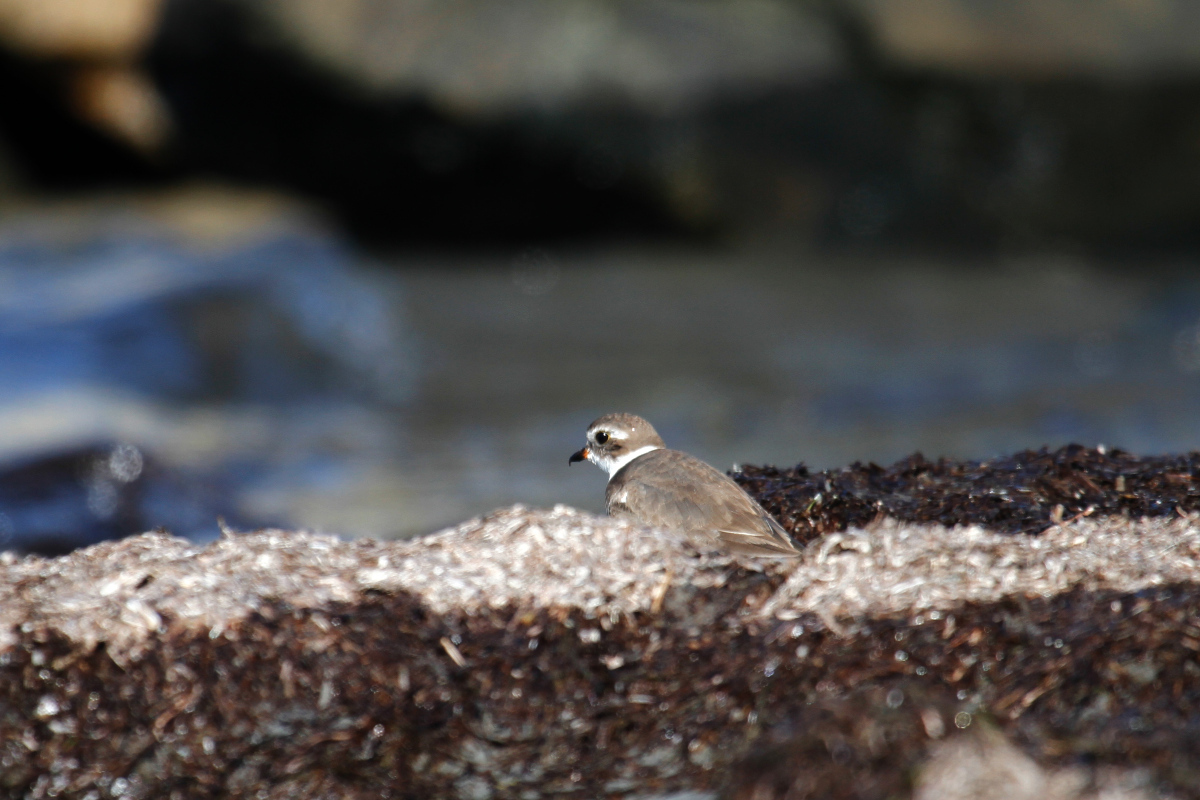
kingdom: Animalia
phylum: Chordata
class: Aves
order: Charadriiformes
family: Charadriidae
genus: Charadrius
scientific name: Charadrius semipalmatus
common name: Semipalmated plover
